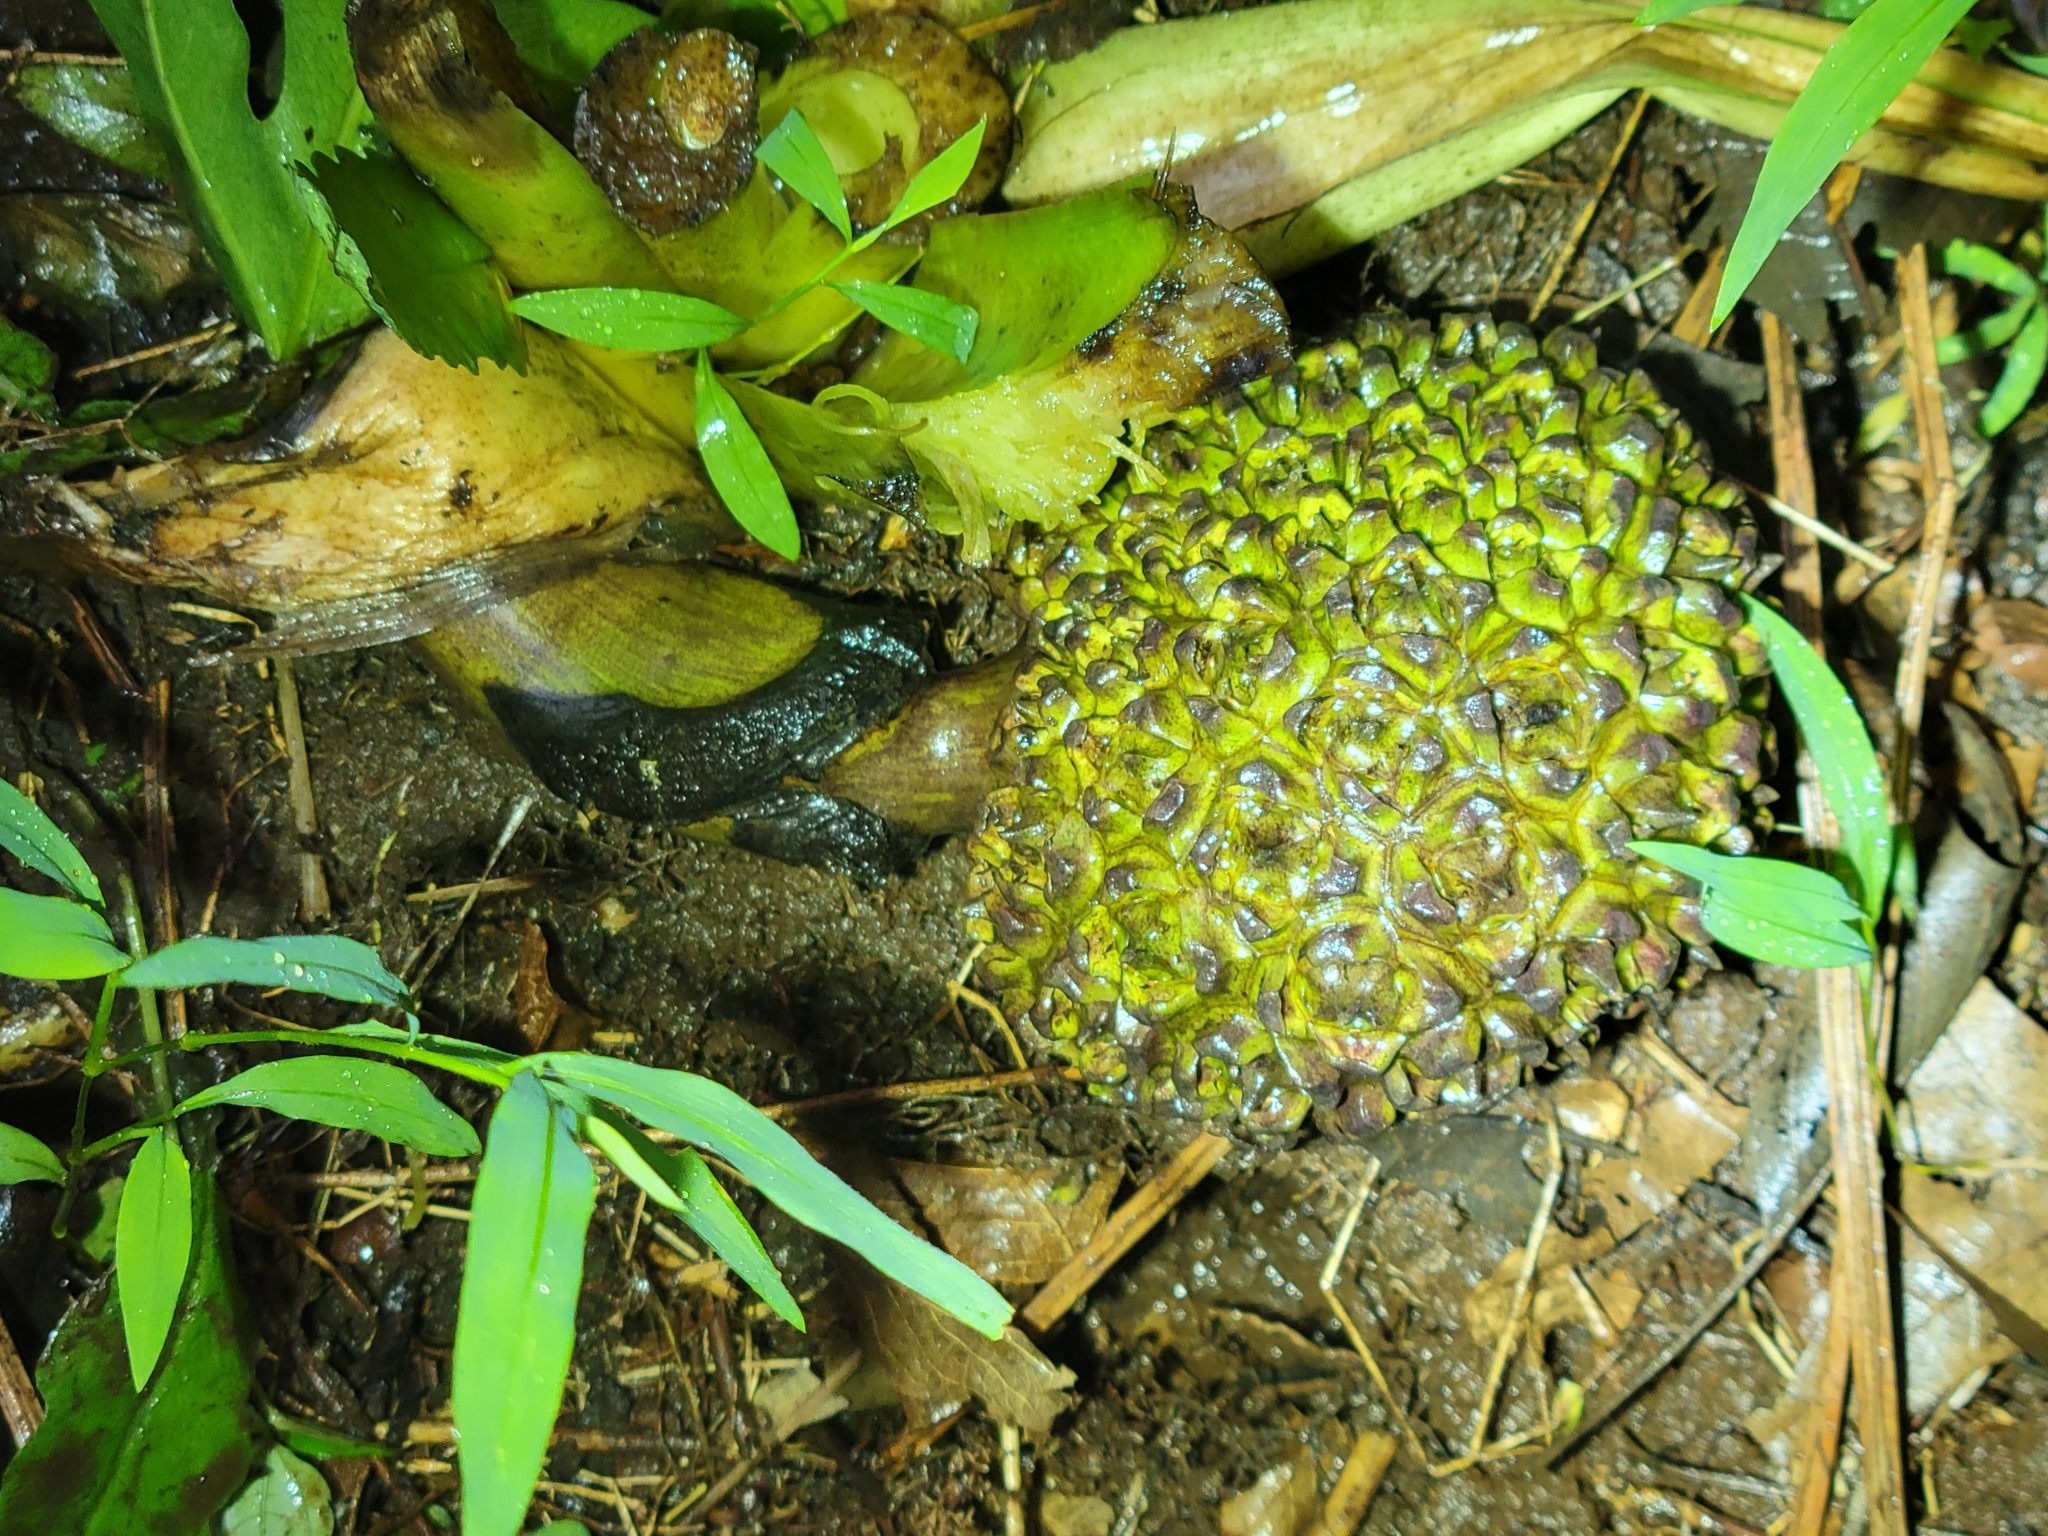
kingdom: Plantae
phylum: Tracheophyta
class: Liliopsida
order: Alismatales
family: Araceae
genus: Symplocarpus
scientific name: Symplocarpus foetidus
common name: Eastern skunk cabbage
